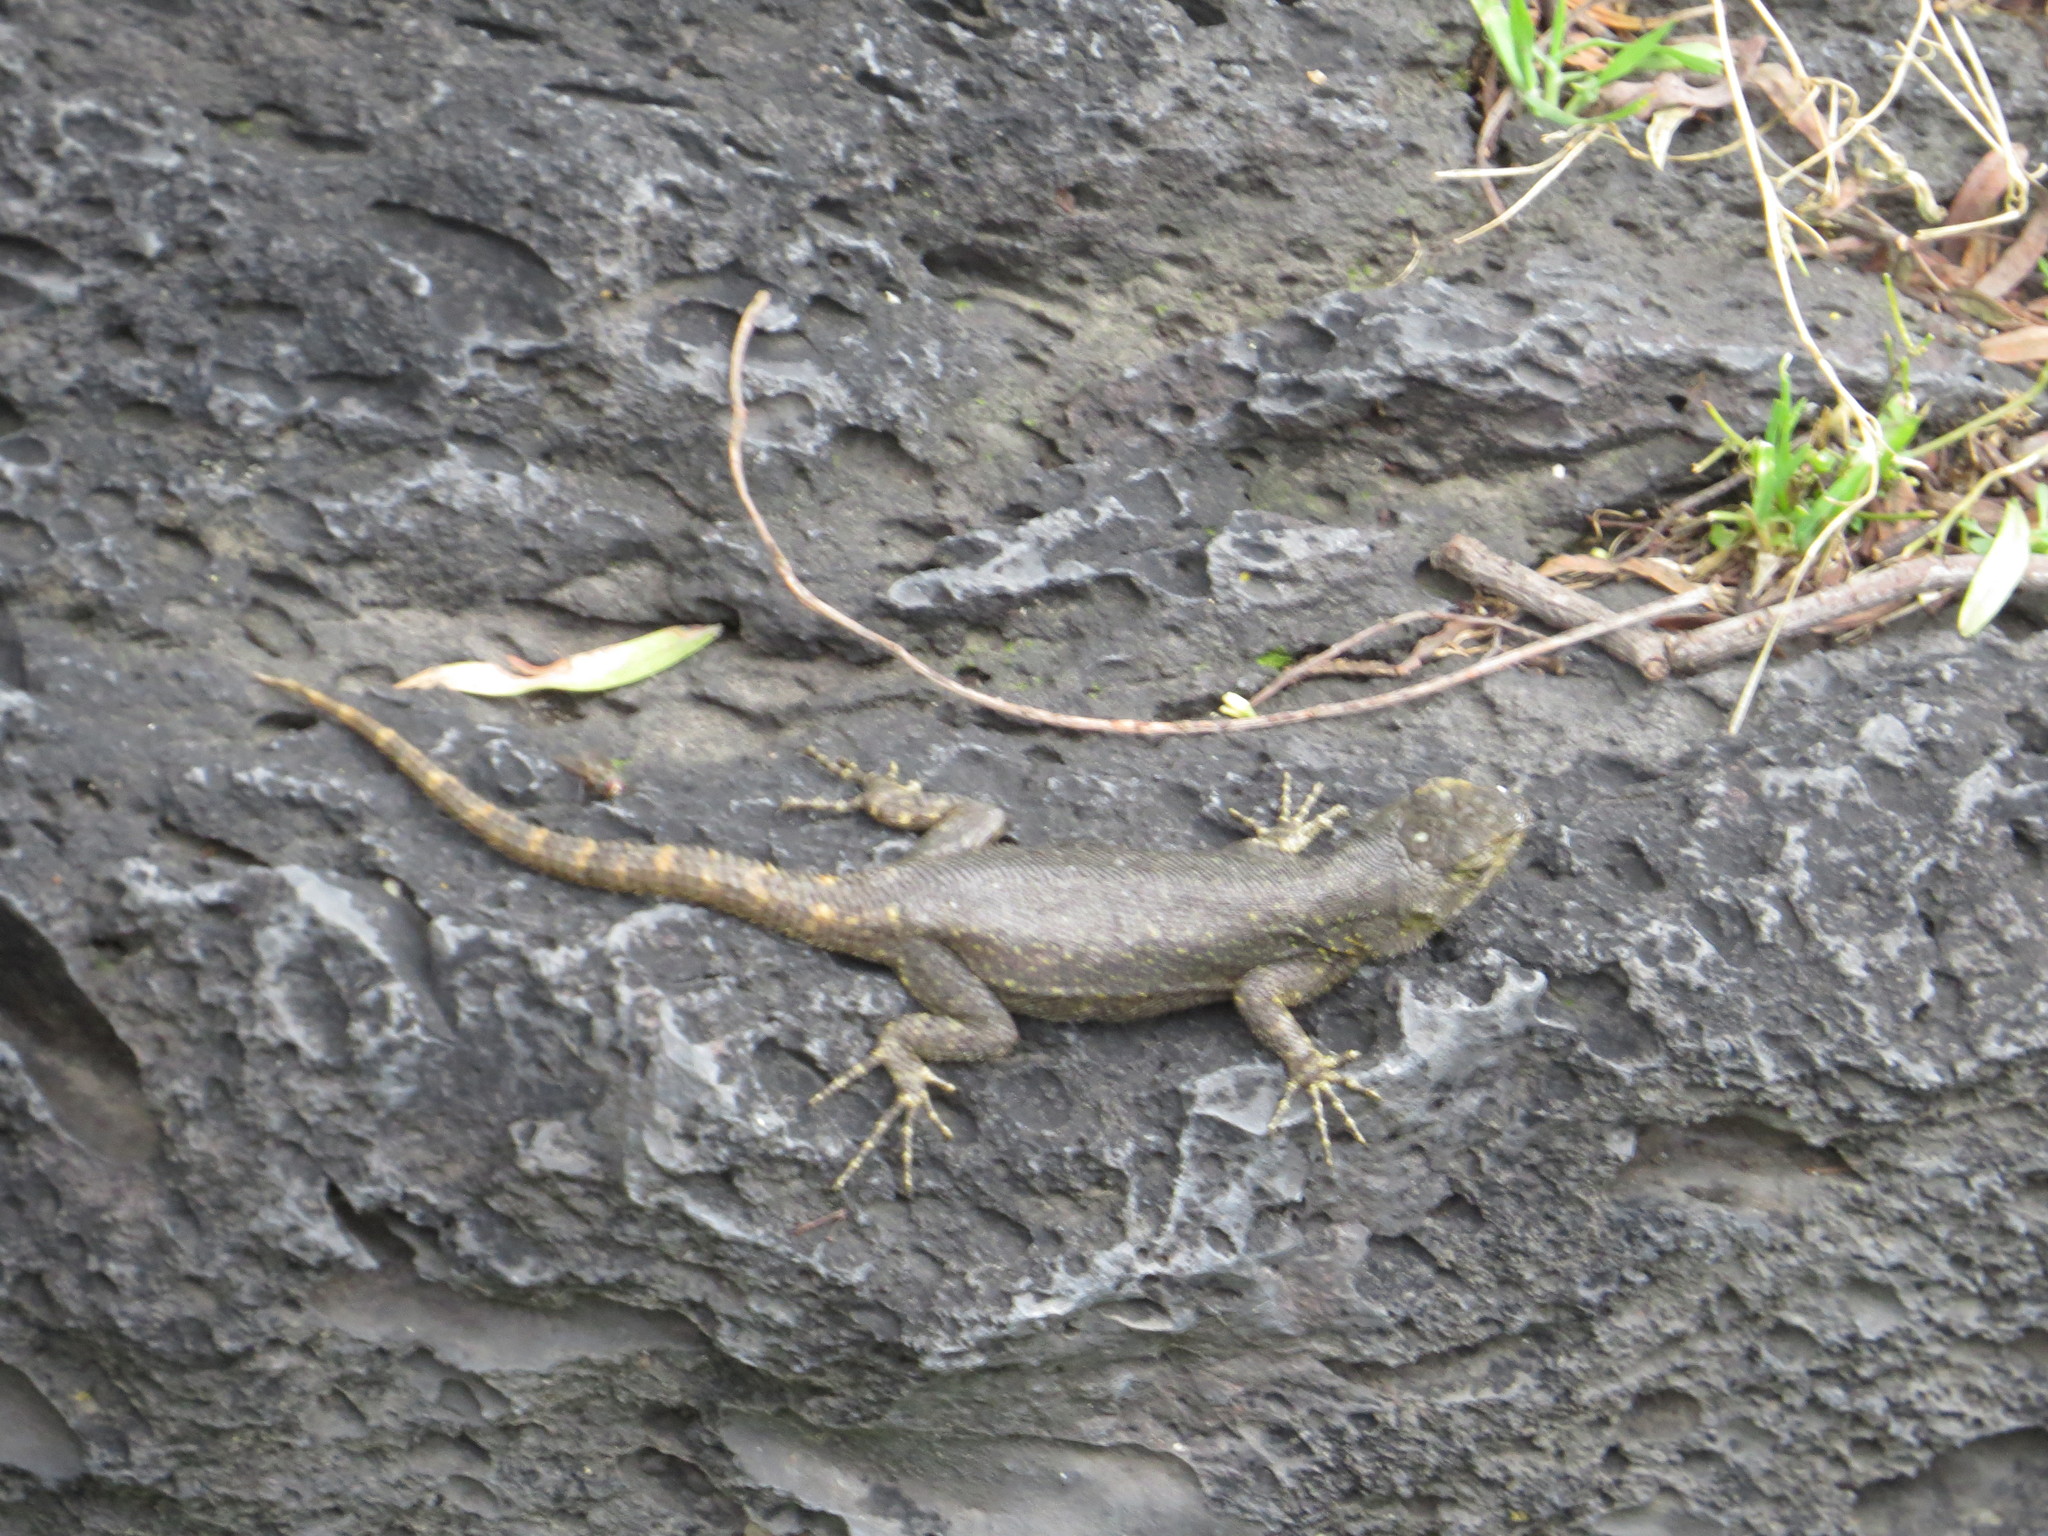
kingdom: Animalia
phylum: Chordata
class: Squamata
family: Phrynosomatidae
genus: Sceloporus
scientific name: Sceloporus grammicus
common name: Mesquite lizard
